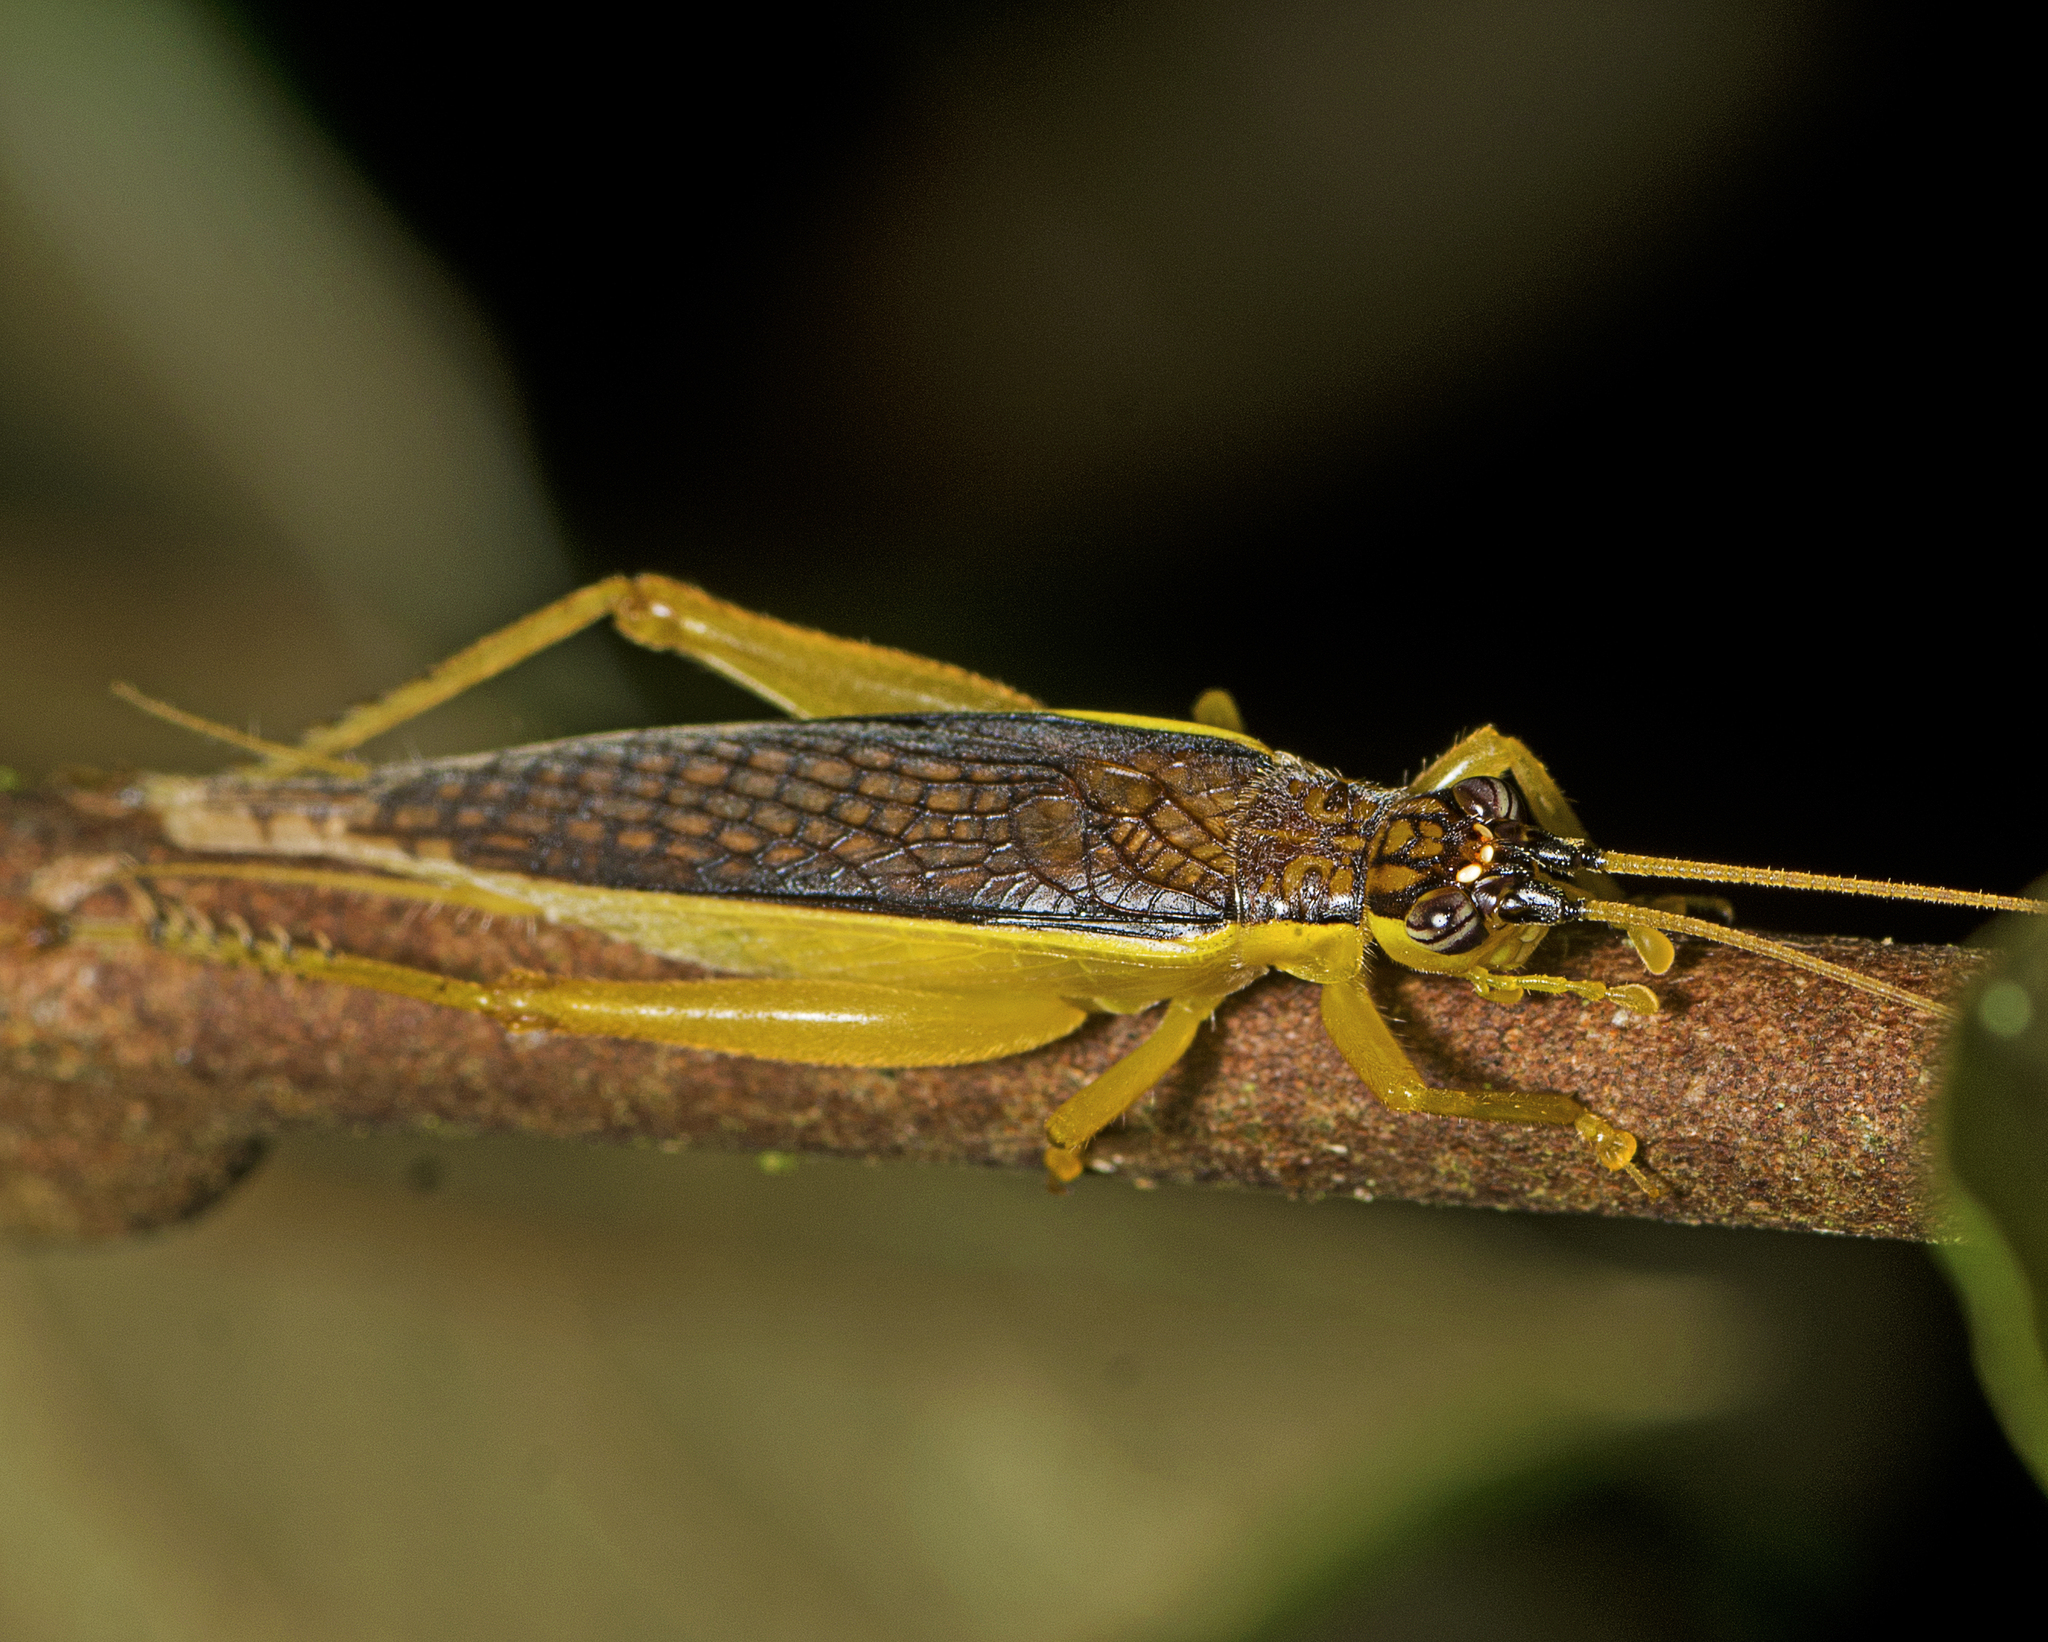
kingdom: Animalia
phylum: Arthropoda
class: Insecta
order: Orthoptera
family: Gryllidae
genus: Unka
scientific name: Unka tribulatio
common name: Plain casping cricket
